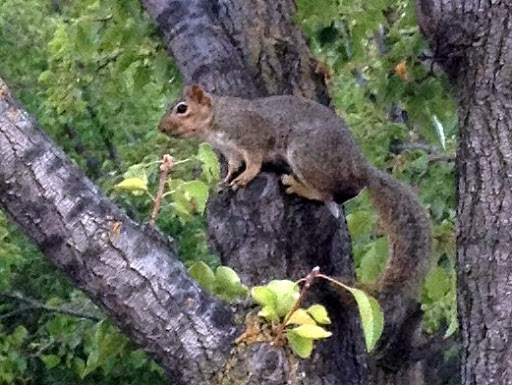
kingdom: Animalia
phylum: Chordata
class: Mammalia
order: Rodentia
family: Sciuridae
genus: Sciurus
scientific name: Sciurus niger
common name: Fox squirrel
